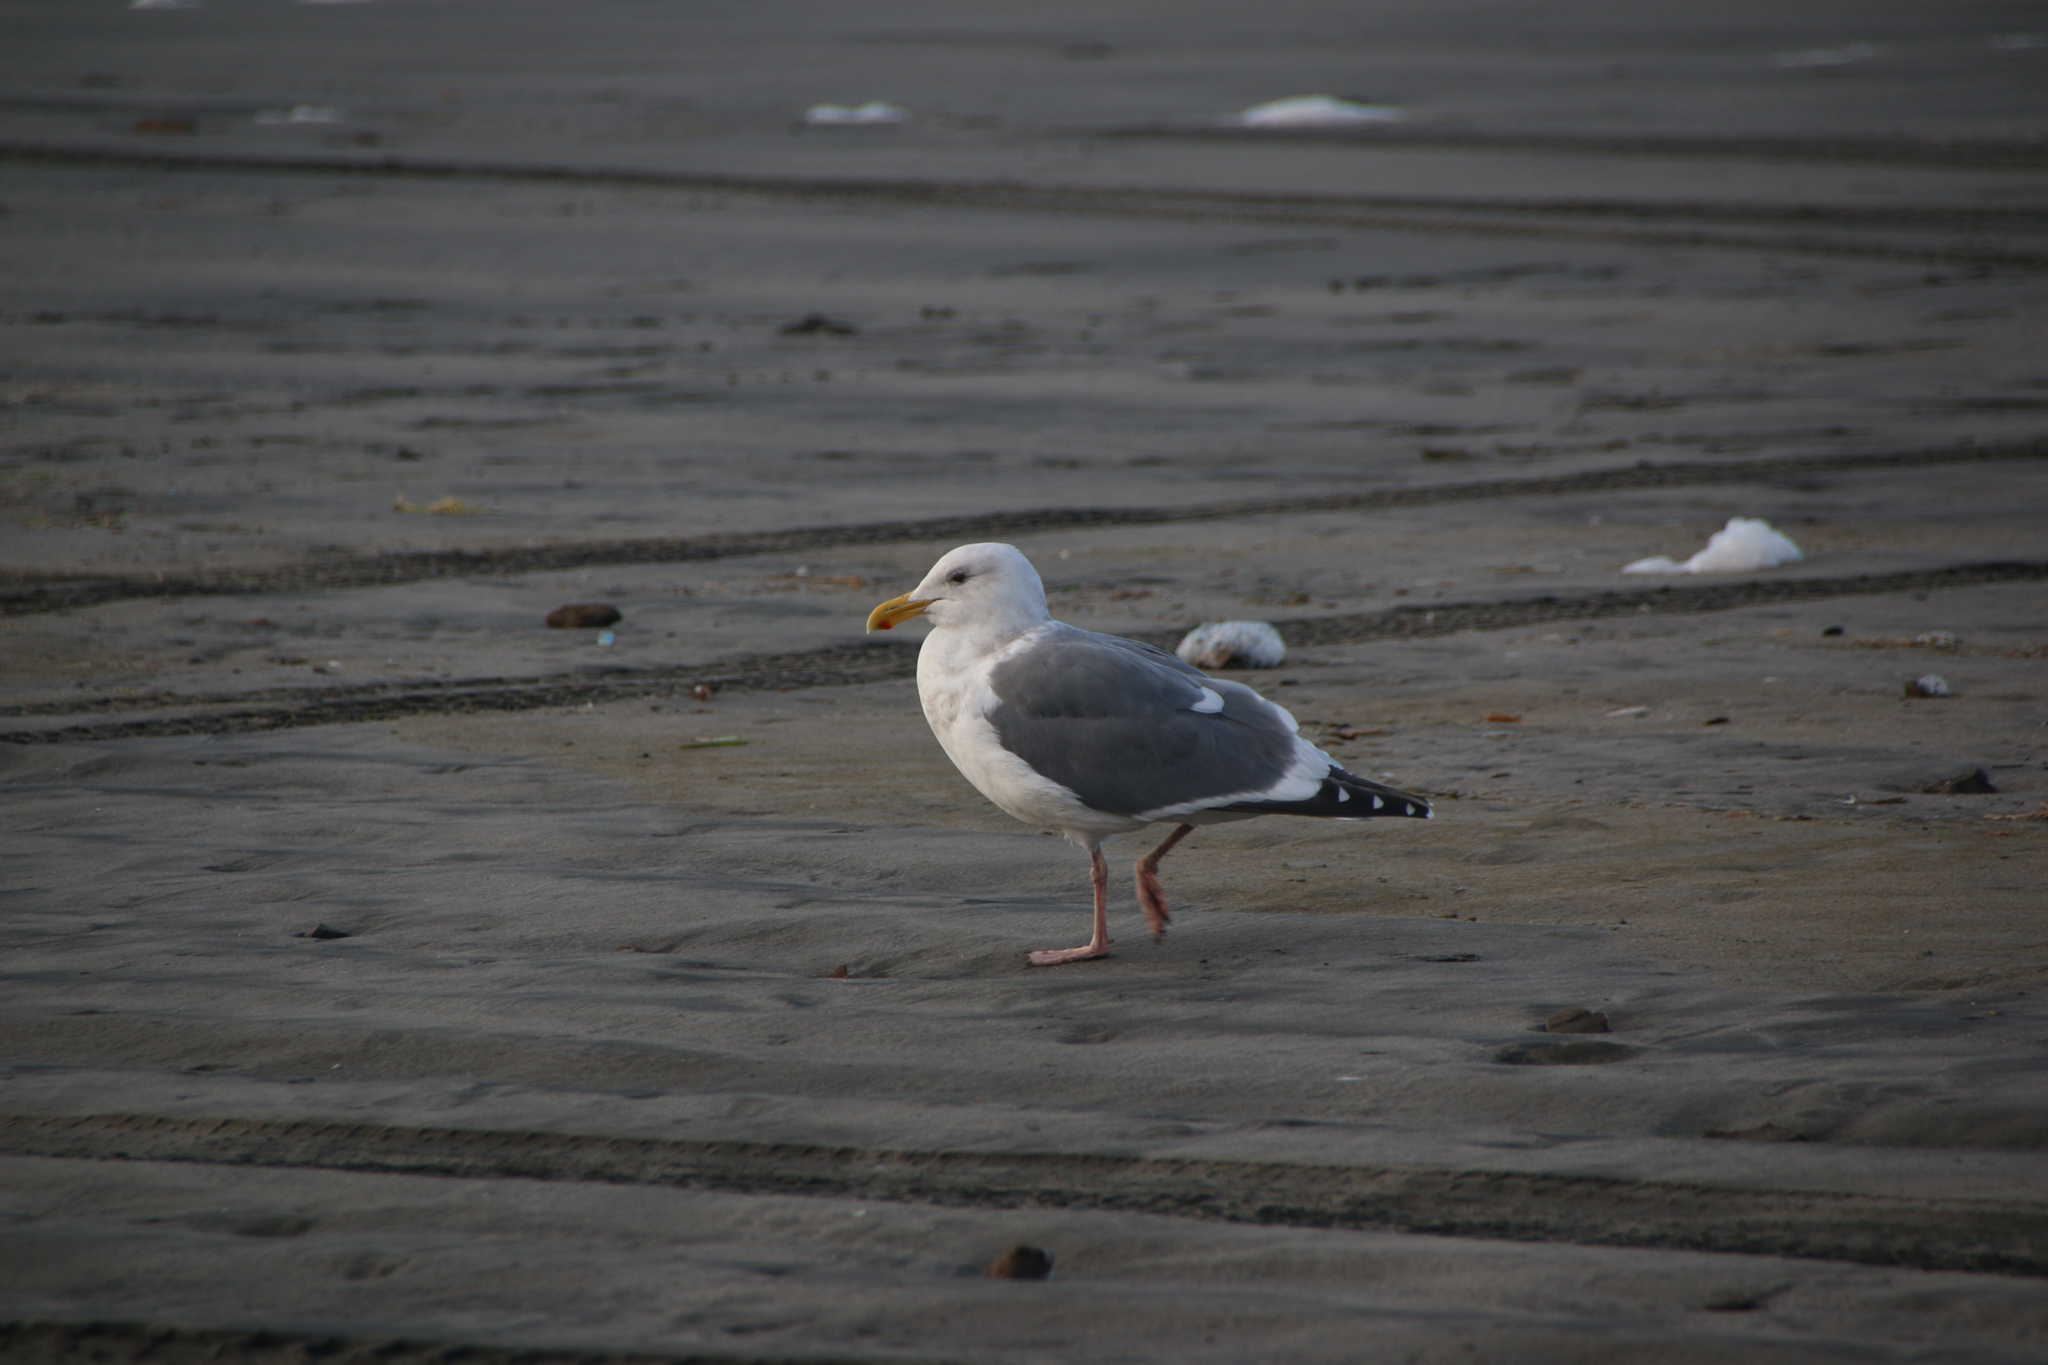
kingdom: Animalia
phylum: Chordata
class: Aves
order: Charadriiformes
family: Laridae
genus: Larus
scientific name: Larus occidentalis
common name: Western gull
